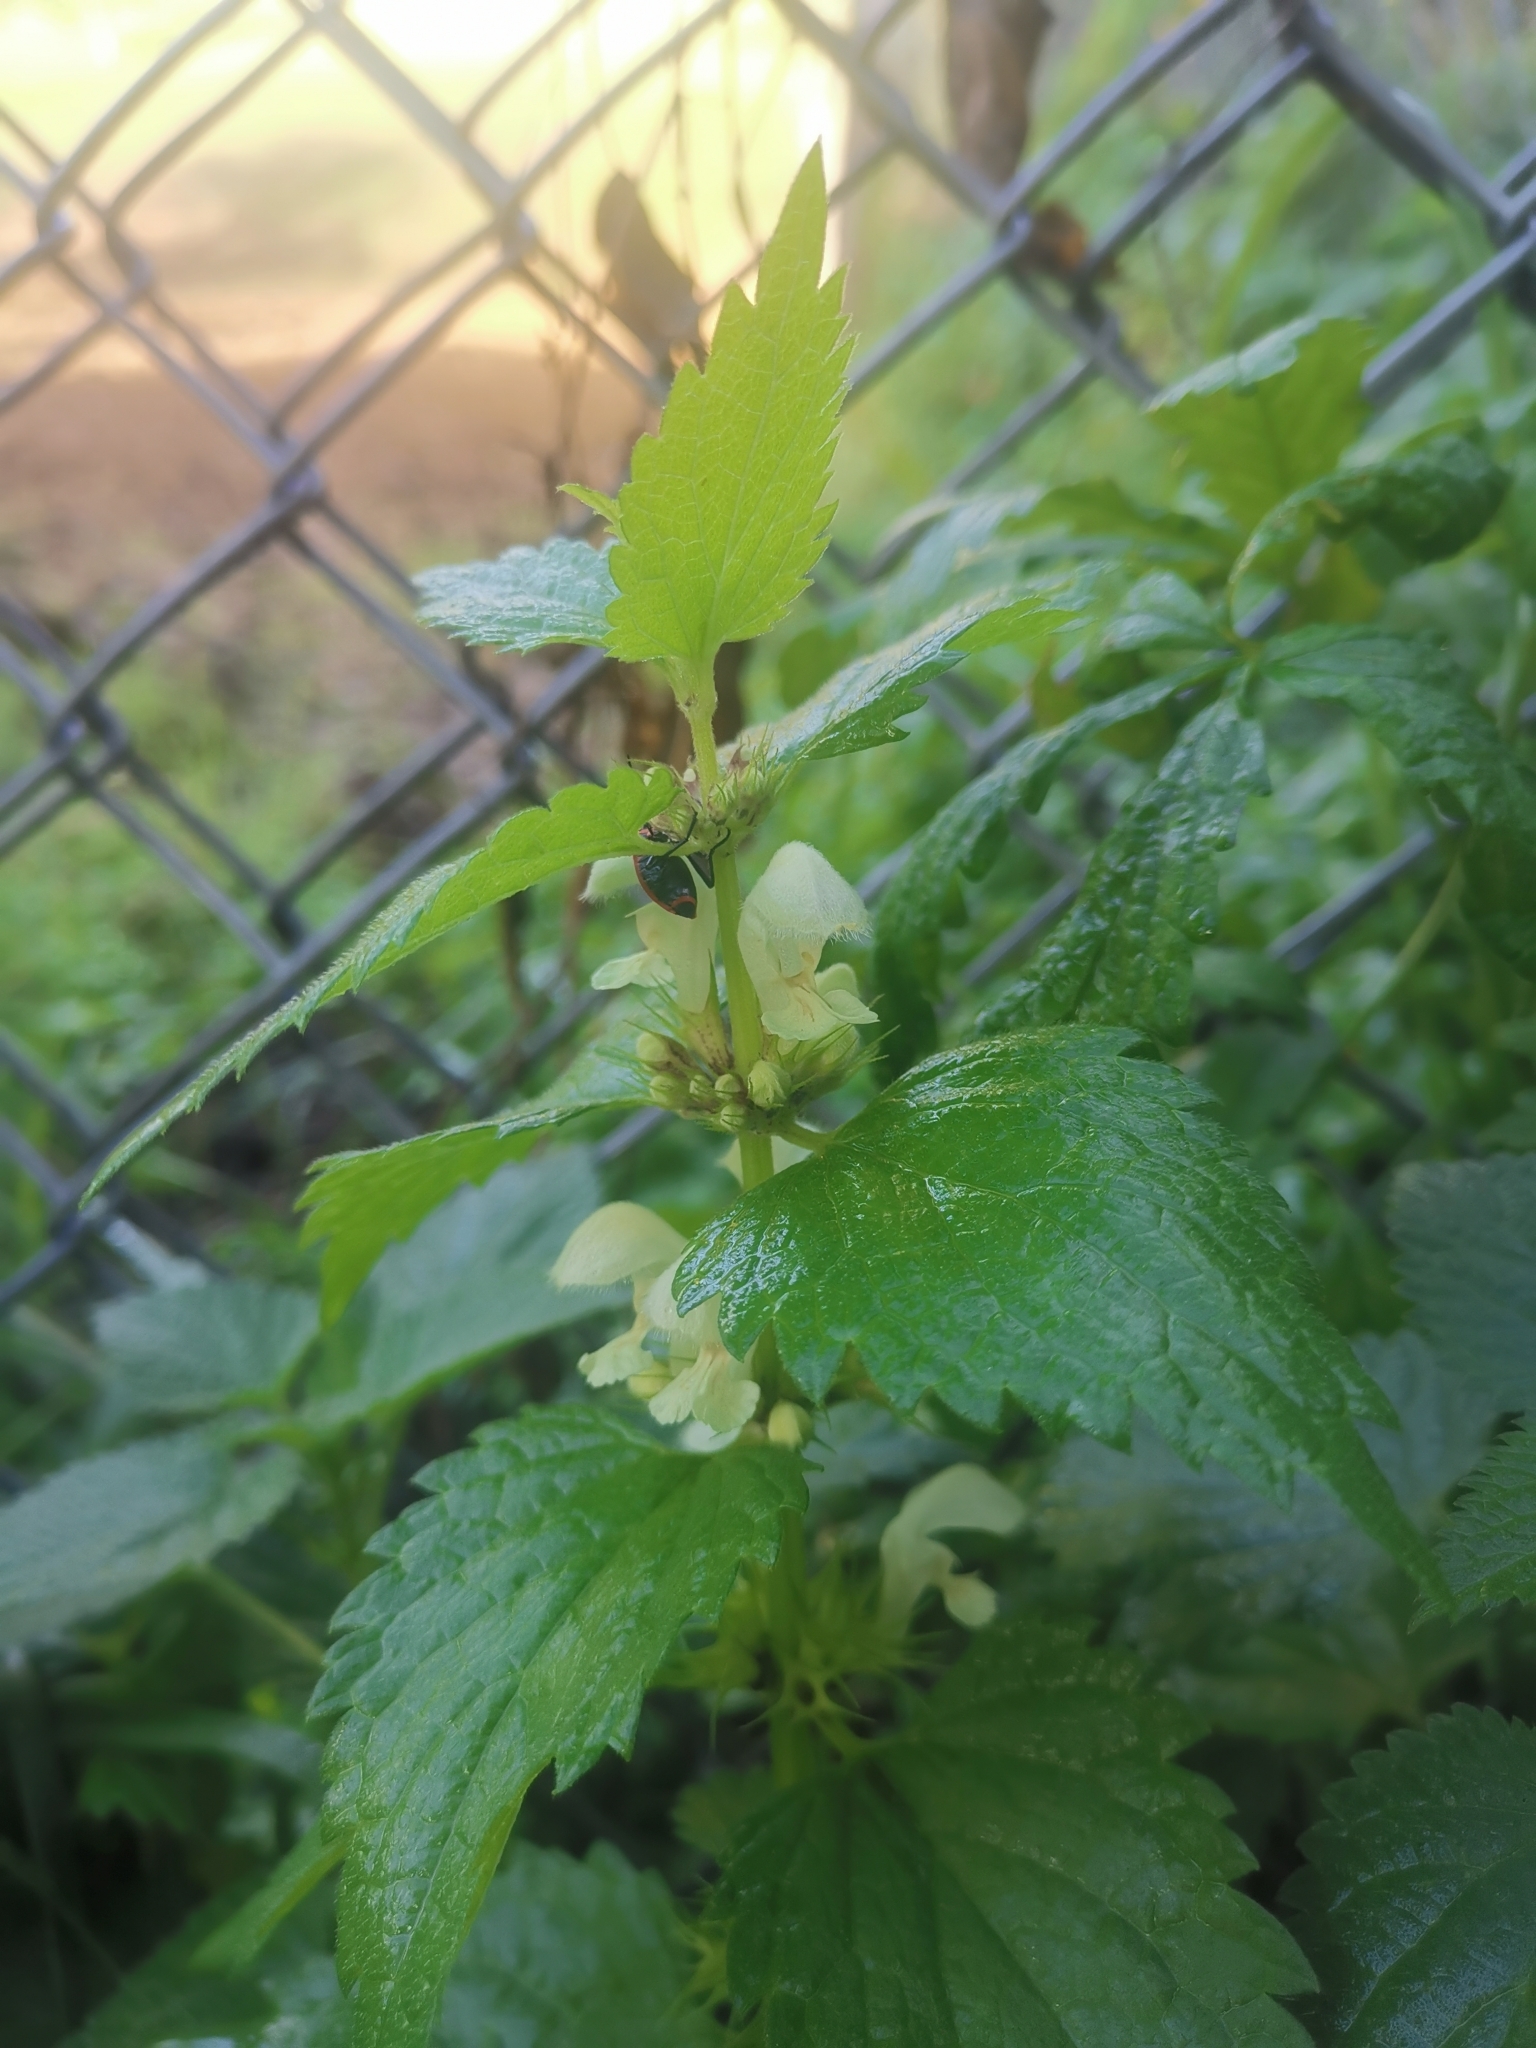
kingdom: Plantae
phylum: Tracheophyta
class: Magnoliopsida
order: Lamiales
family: Lamiaceae
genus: Lamium
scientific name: Lamium album
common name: White dead-nettle
